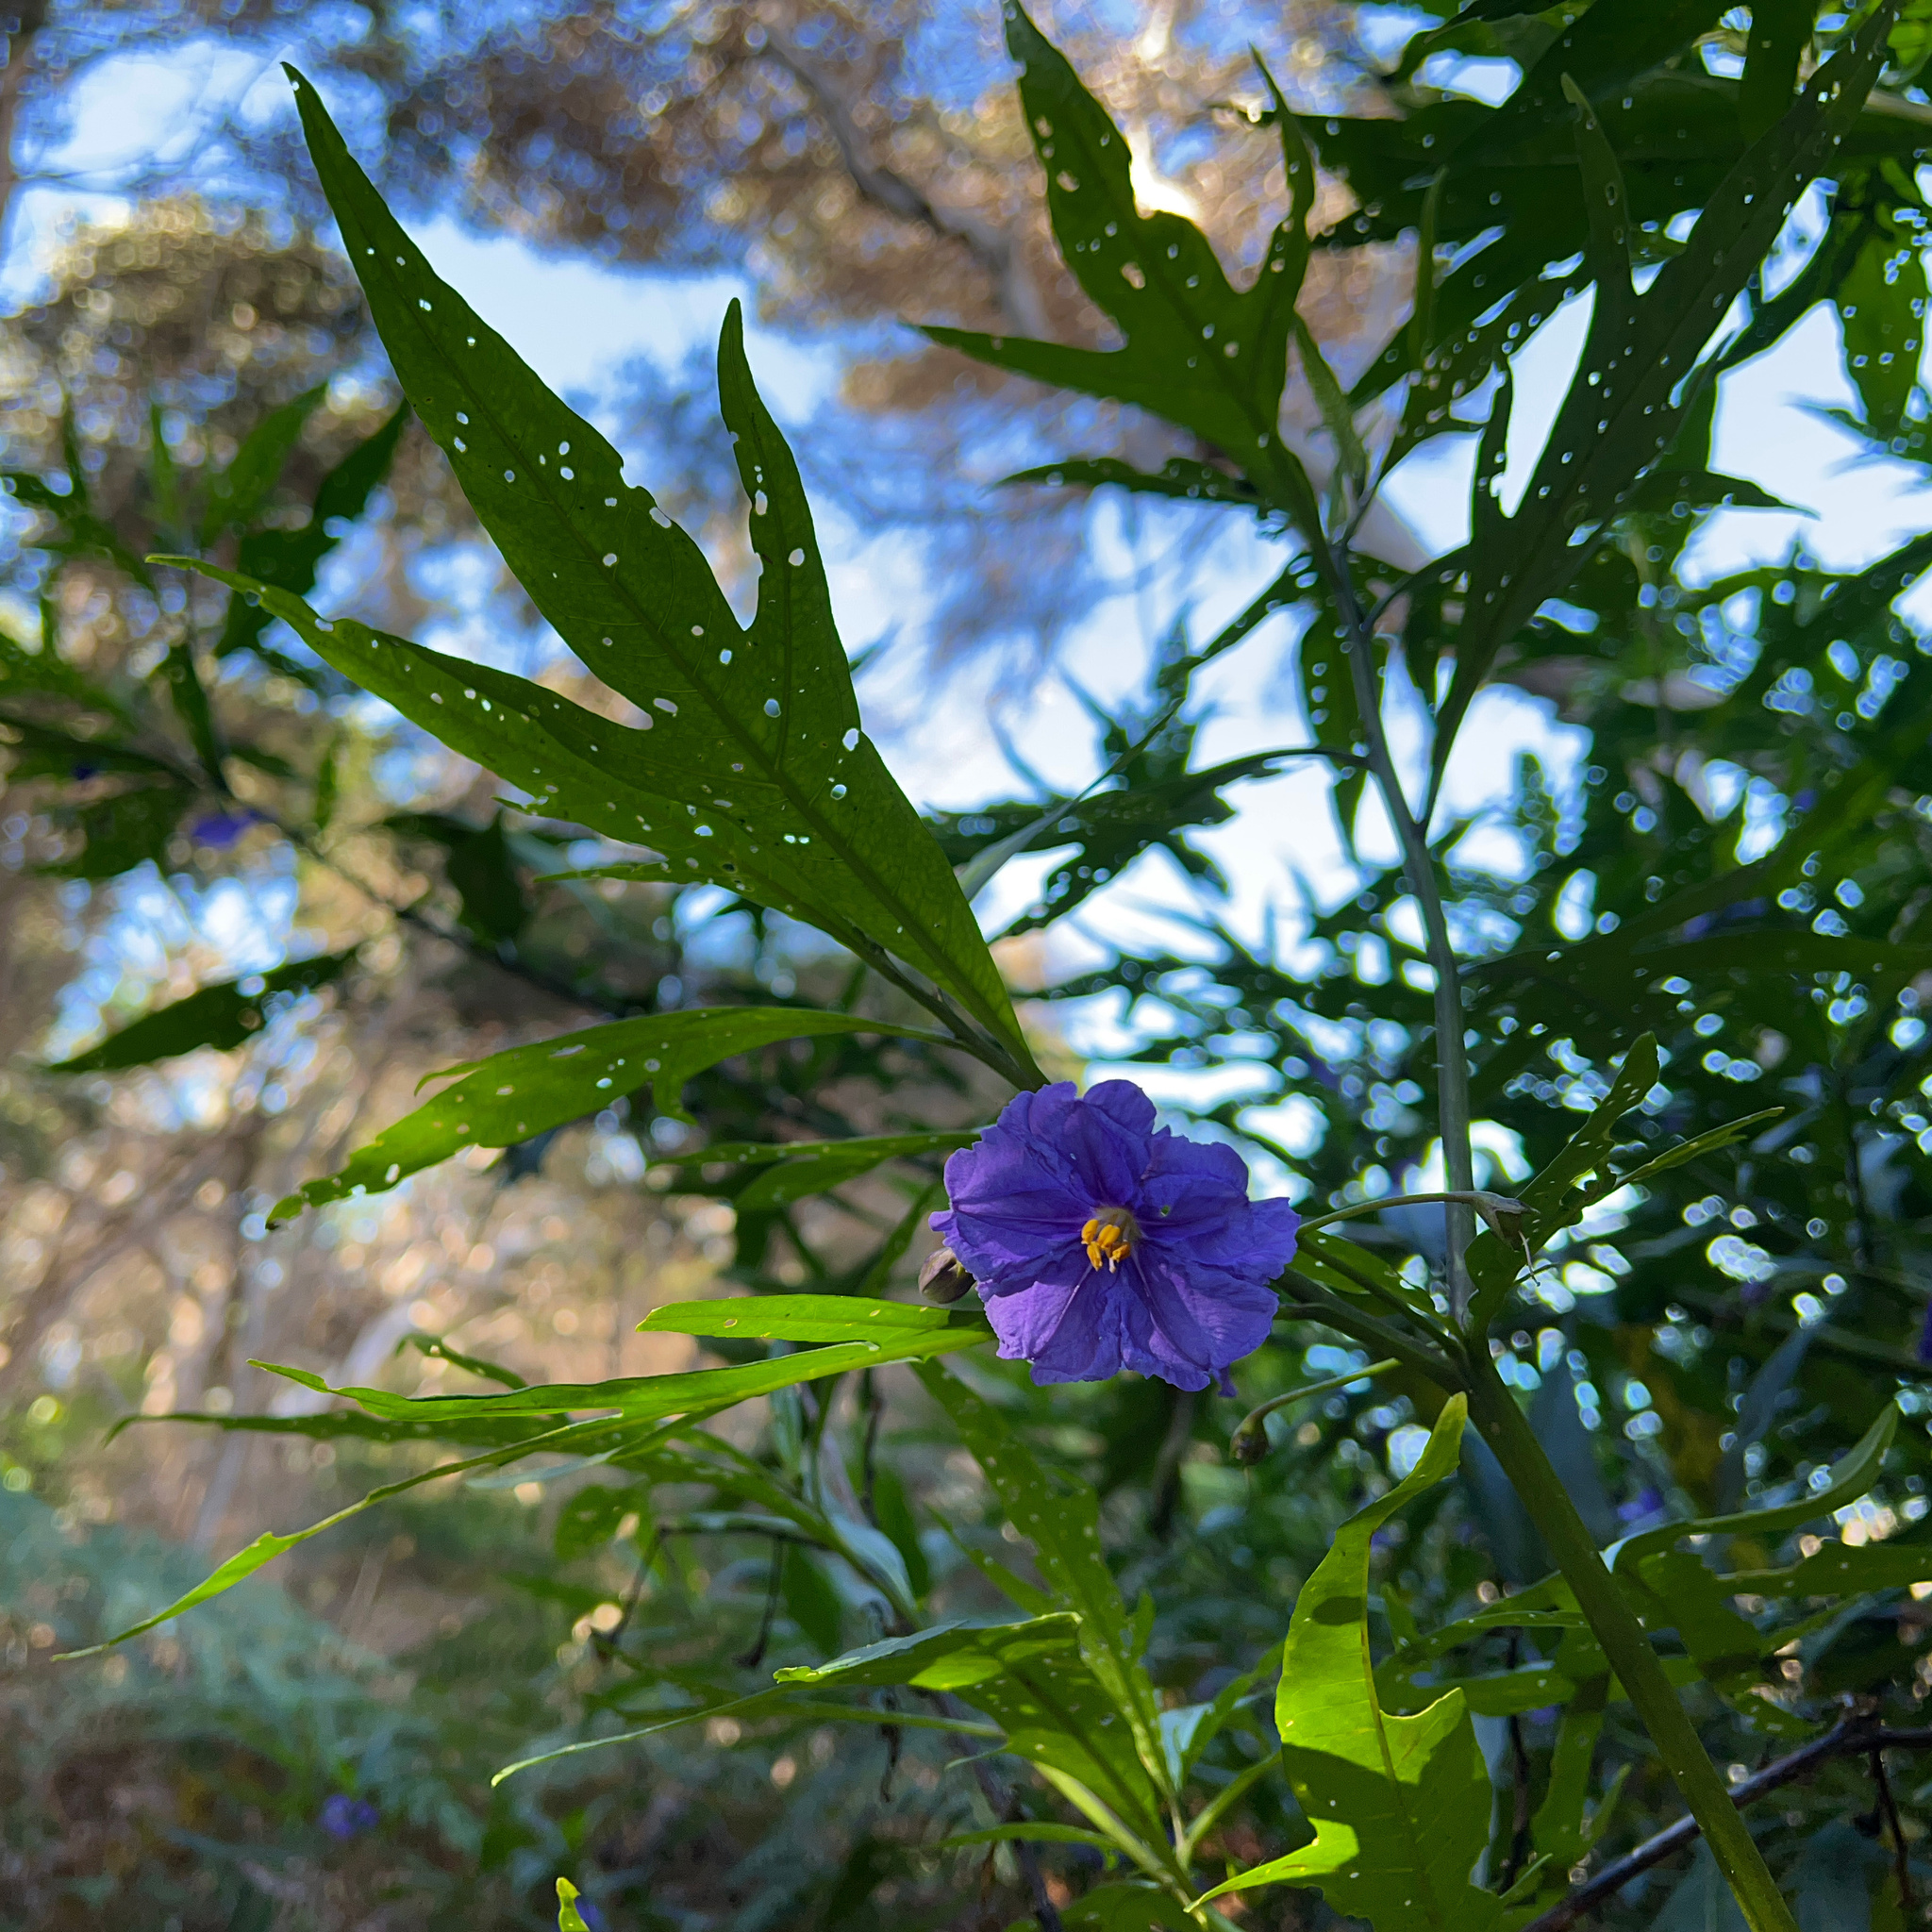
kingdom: Plantae
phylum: Tracheophyta
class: Magnoliopsida
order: Solanales
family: Solanaceae
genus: Solanum
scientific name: Solanum laciniatum
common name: Kangaroo-apple
